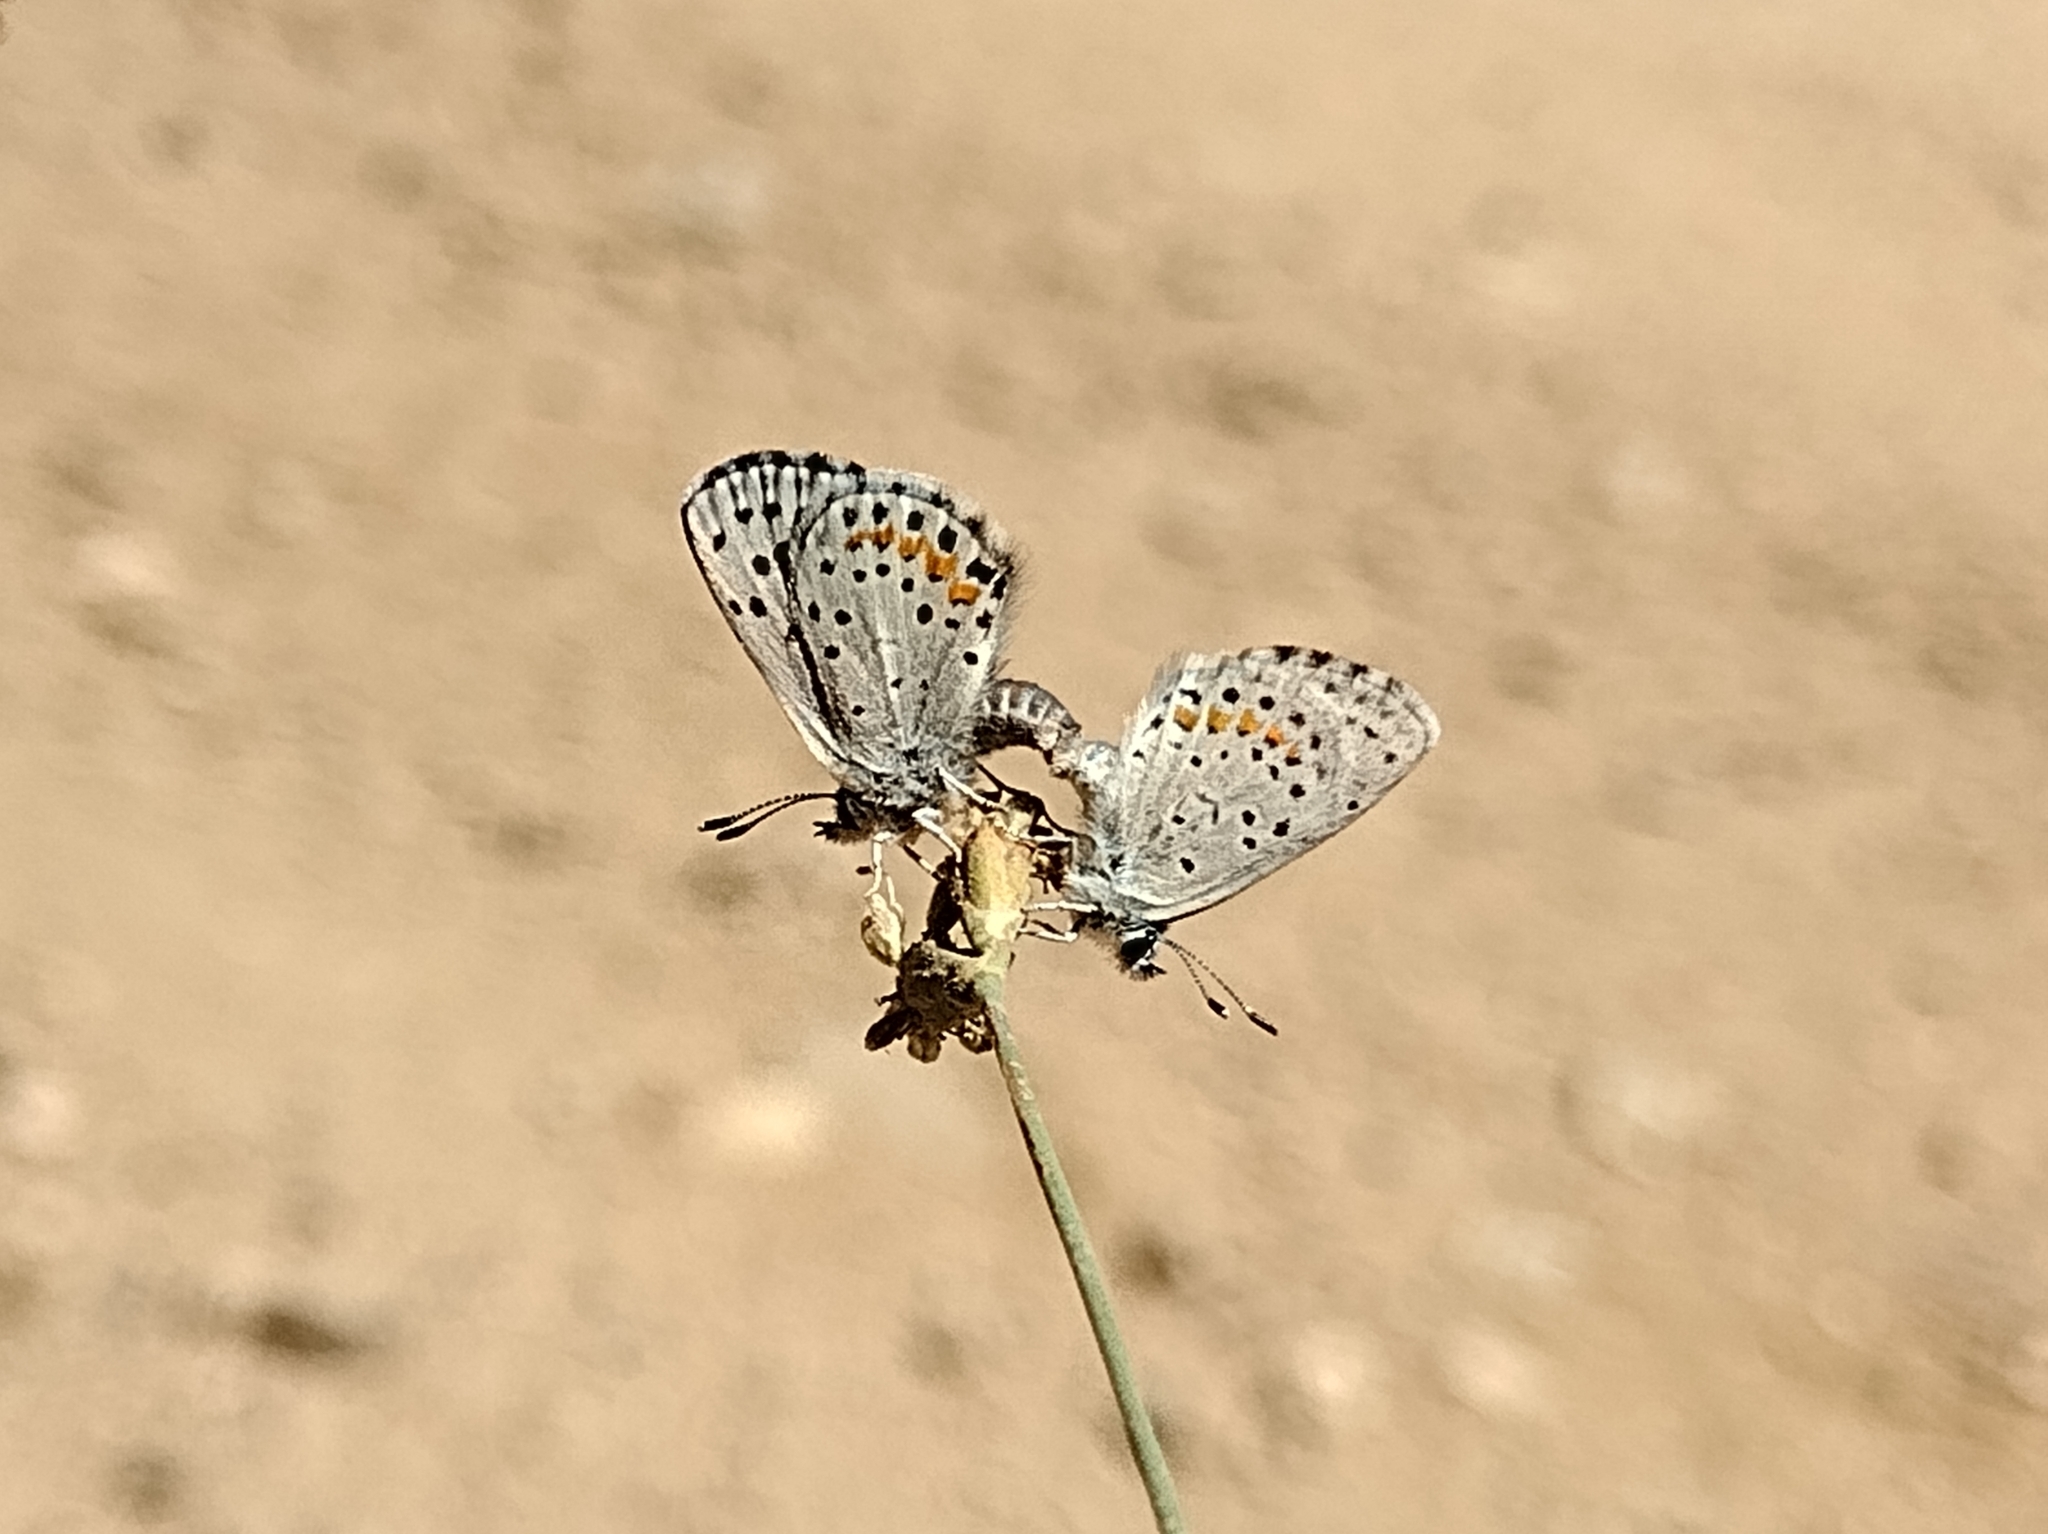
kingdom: Animalia
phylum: Arthropoda
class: Insecta
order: Lepidoptera
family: Lycaenidae
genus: Euphilotes
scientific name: Euphilotes enoptes
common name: Dotted blue
